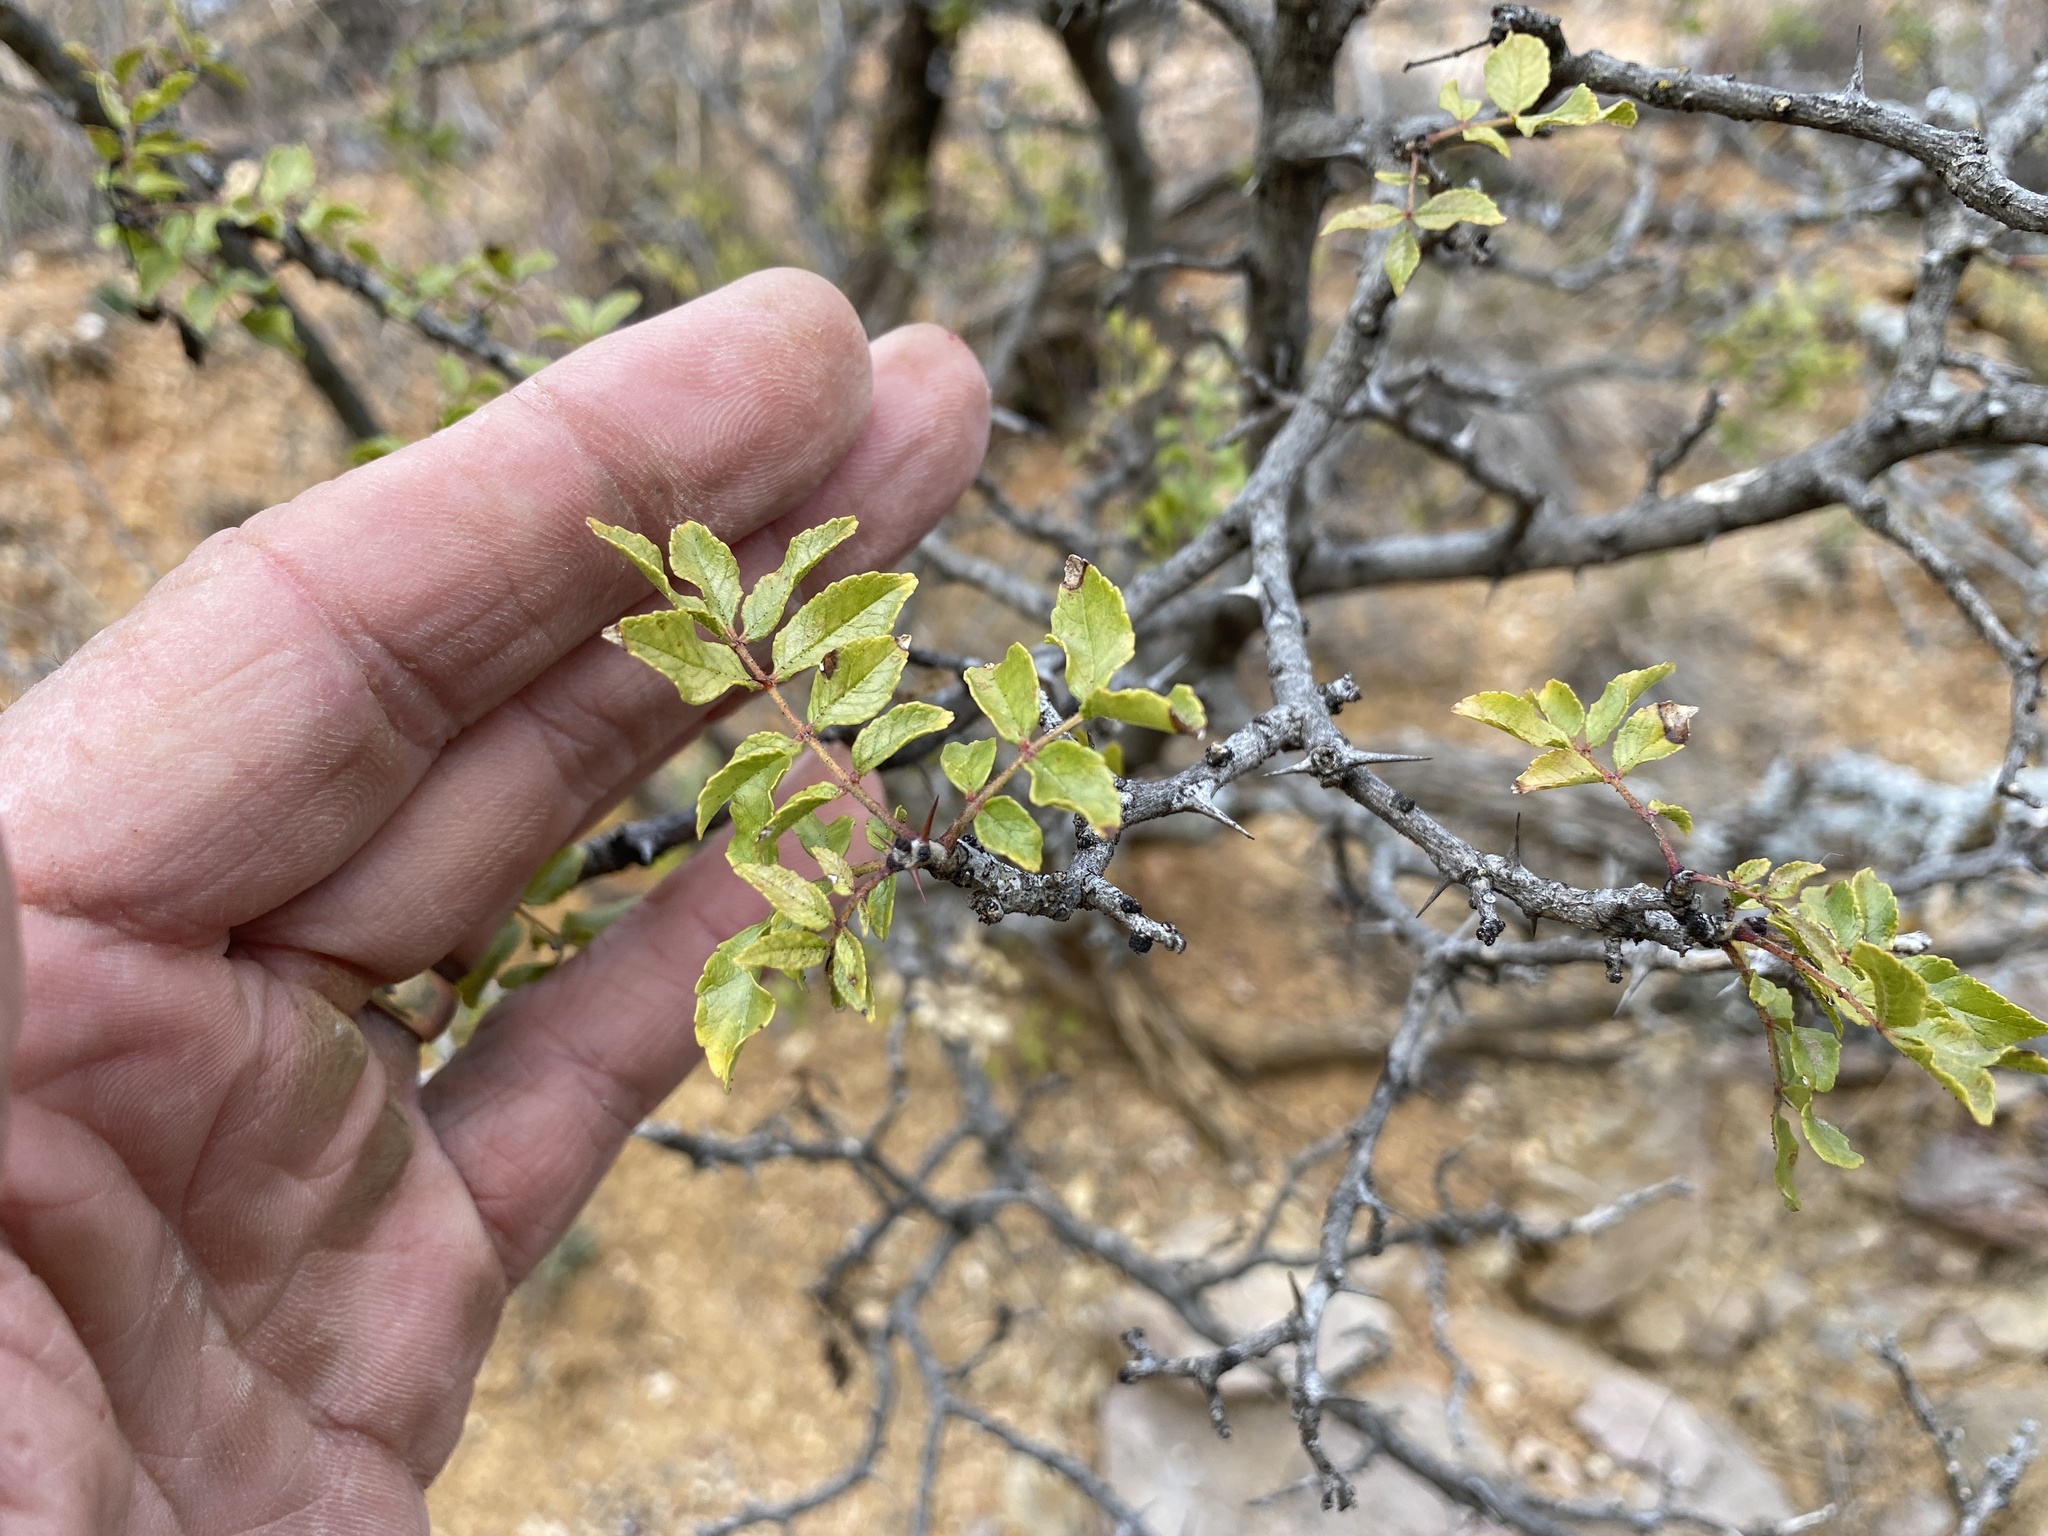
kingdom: Plantae
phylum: Tracheophyta
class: Magnoliopsida
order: Sapindales
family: Rutaceae
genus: Zanthoxylum
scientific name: Zanthoxylum clava-herculis
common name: Hercules'-club
